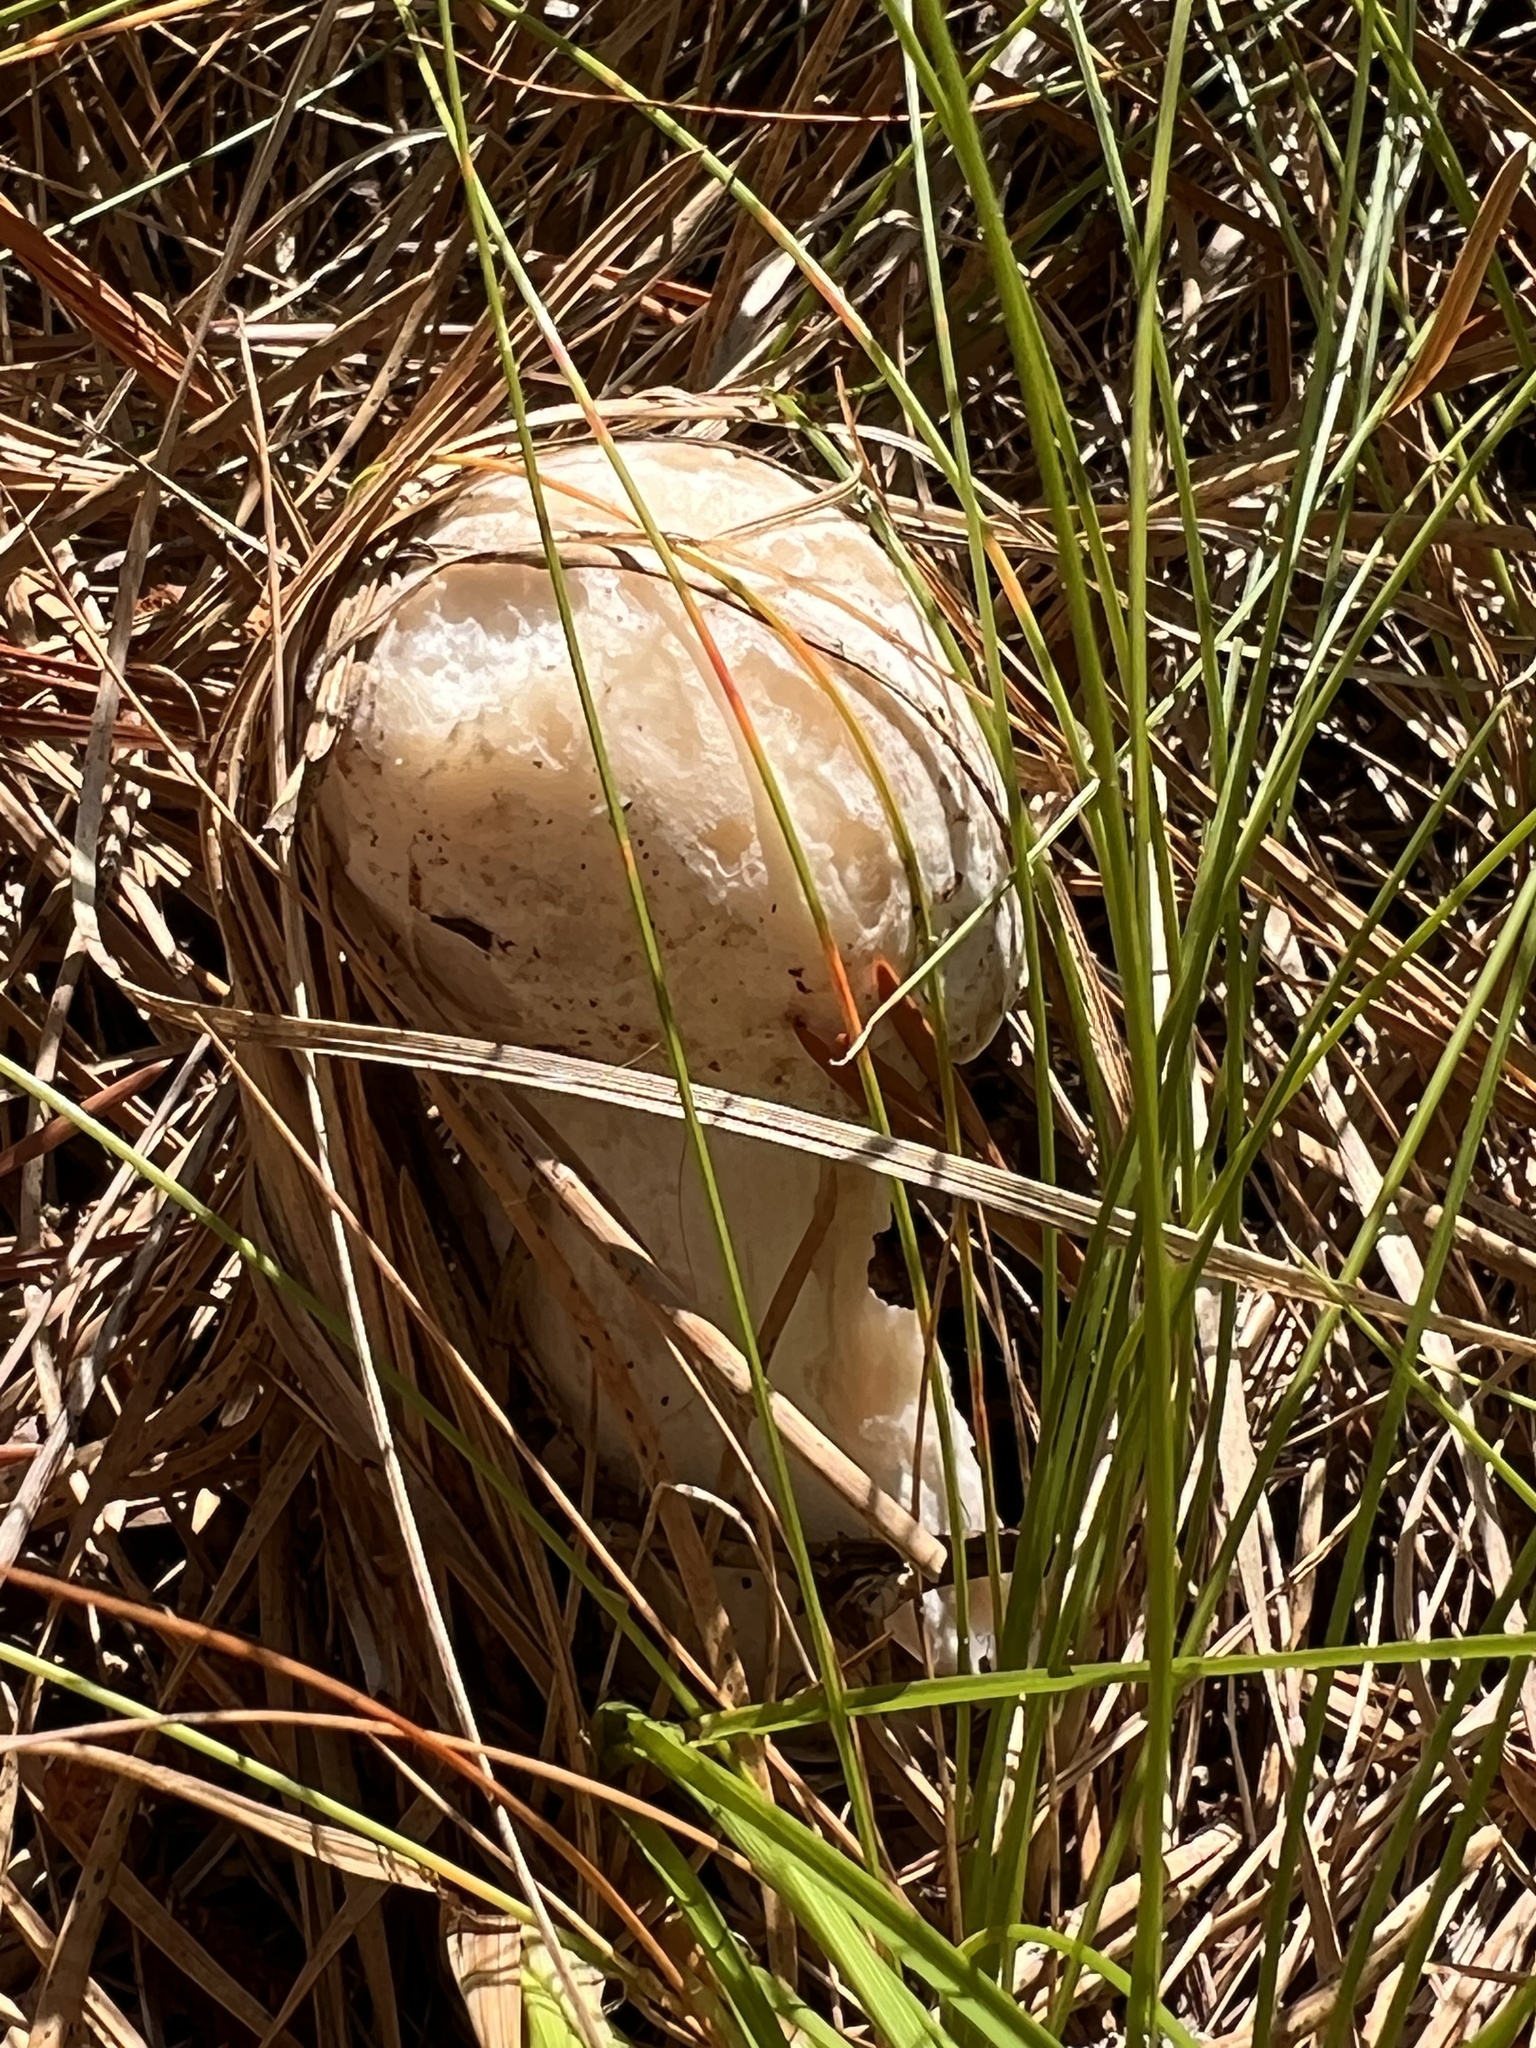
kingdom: Fungi
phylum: Ascomycota
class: Sordariomycetes
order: Hypocreales
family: Hypocreaceae
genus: Hypomyces
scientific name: Hypomyces hyalinus
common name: Amanita mold
